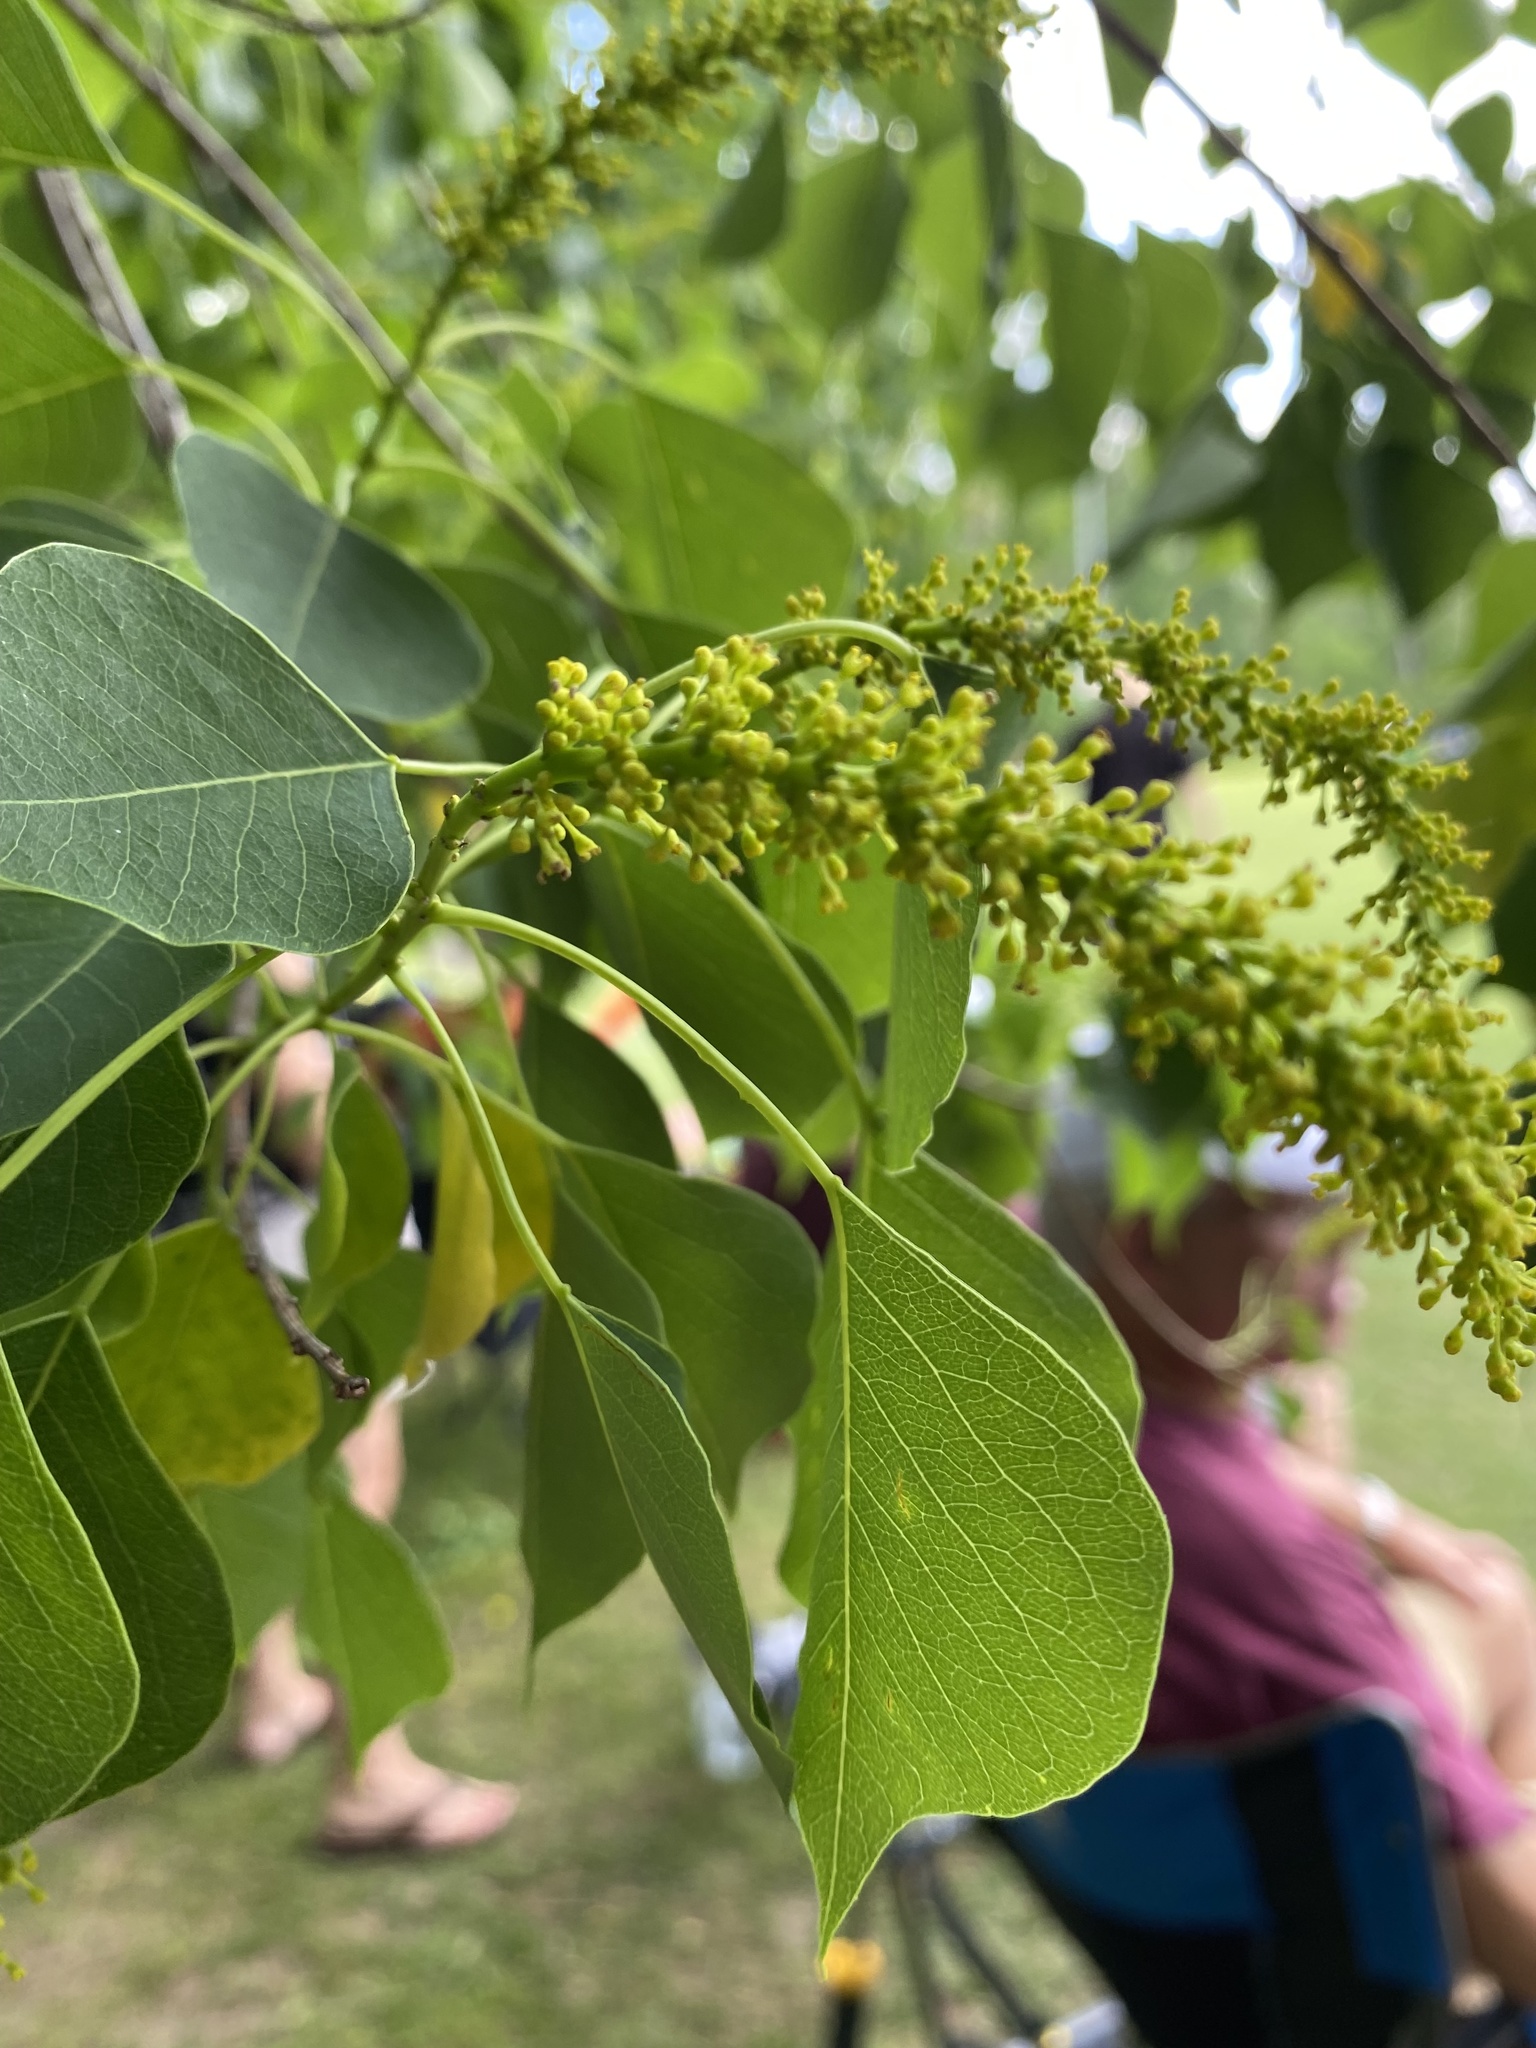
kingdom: Plantae
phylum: Tracheophyta
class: Magnoliopsida
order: Malpighiales
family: Euphorbiaceae
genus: Triadica
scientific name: Triadica sebifera
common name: Chinese tallow
